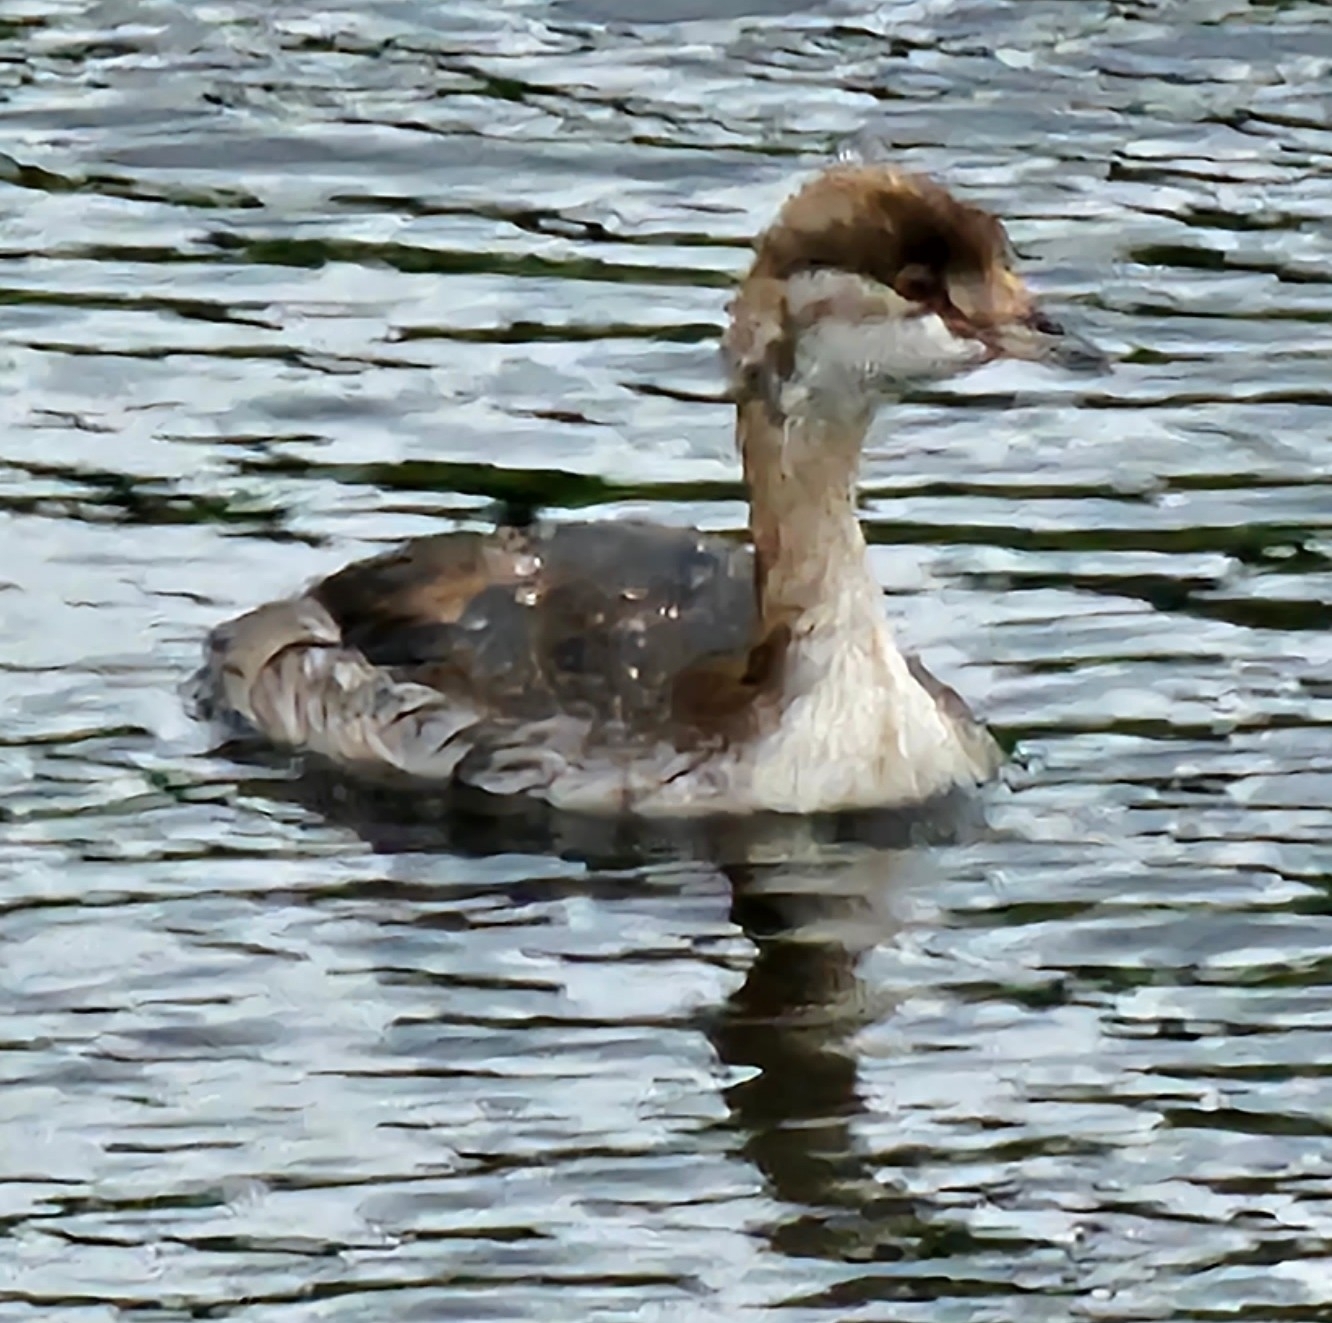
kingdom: Animalia
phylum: Chordata
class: Aves
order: Podicipediformes
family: Podicipedidae
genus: Podiceps
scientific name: Podiceps auritus
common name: Horned grebe
